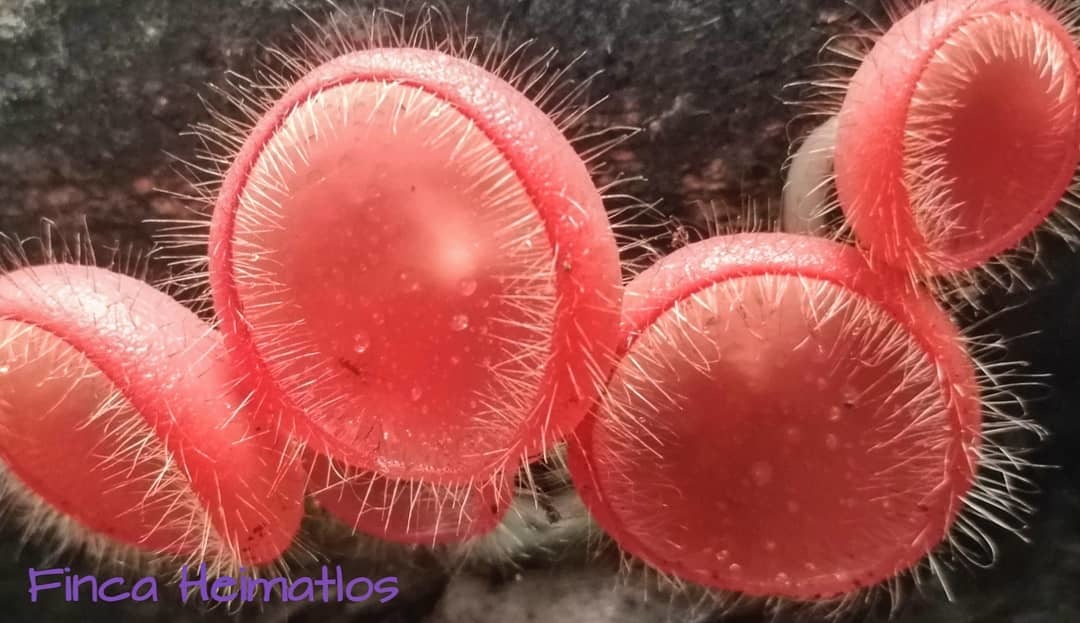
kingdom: Fungi
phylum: Ascomycota
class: Pezizomycetes
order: Pezizales
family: Sarcoscyphaceae
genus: Cookeina
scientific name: Cookeina tricholoma
